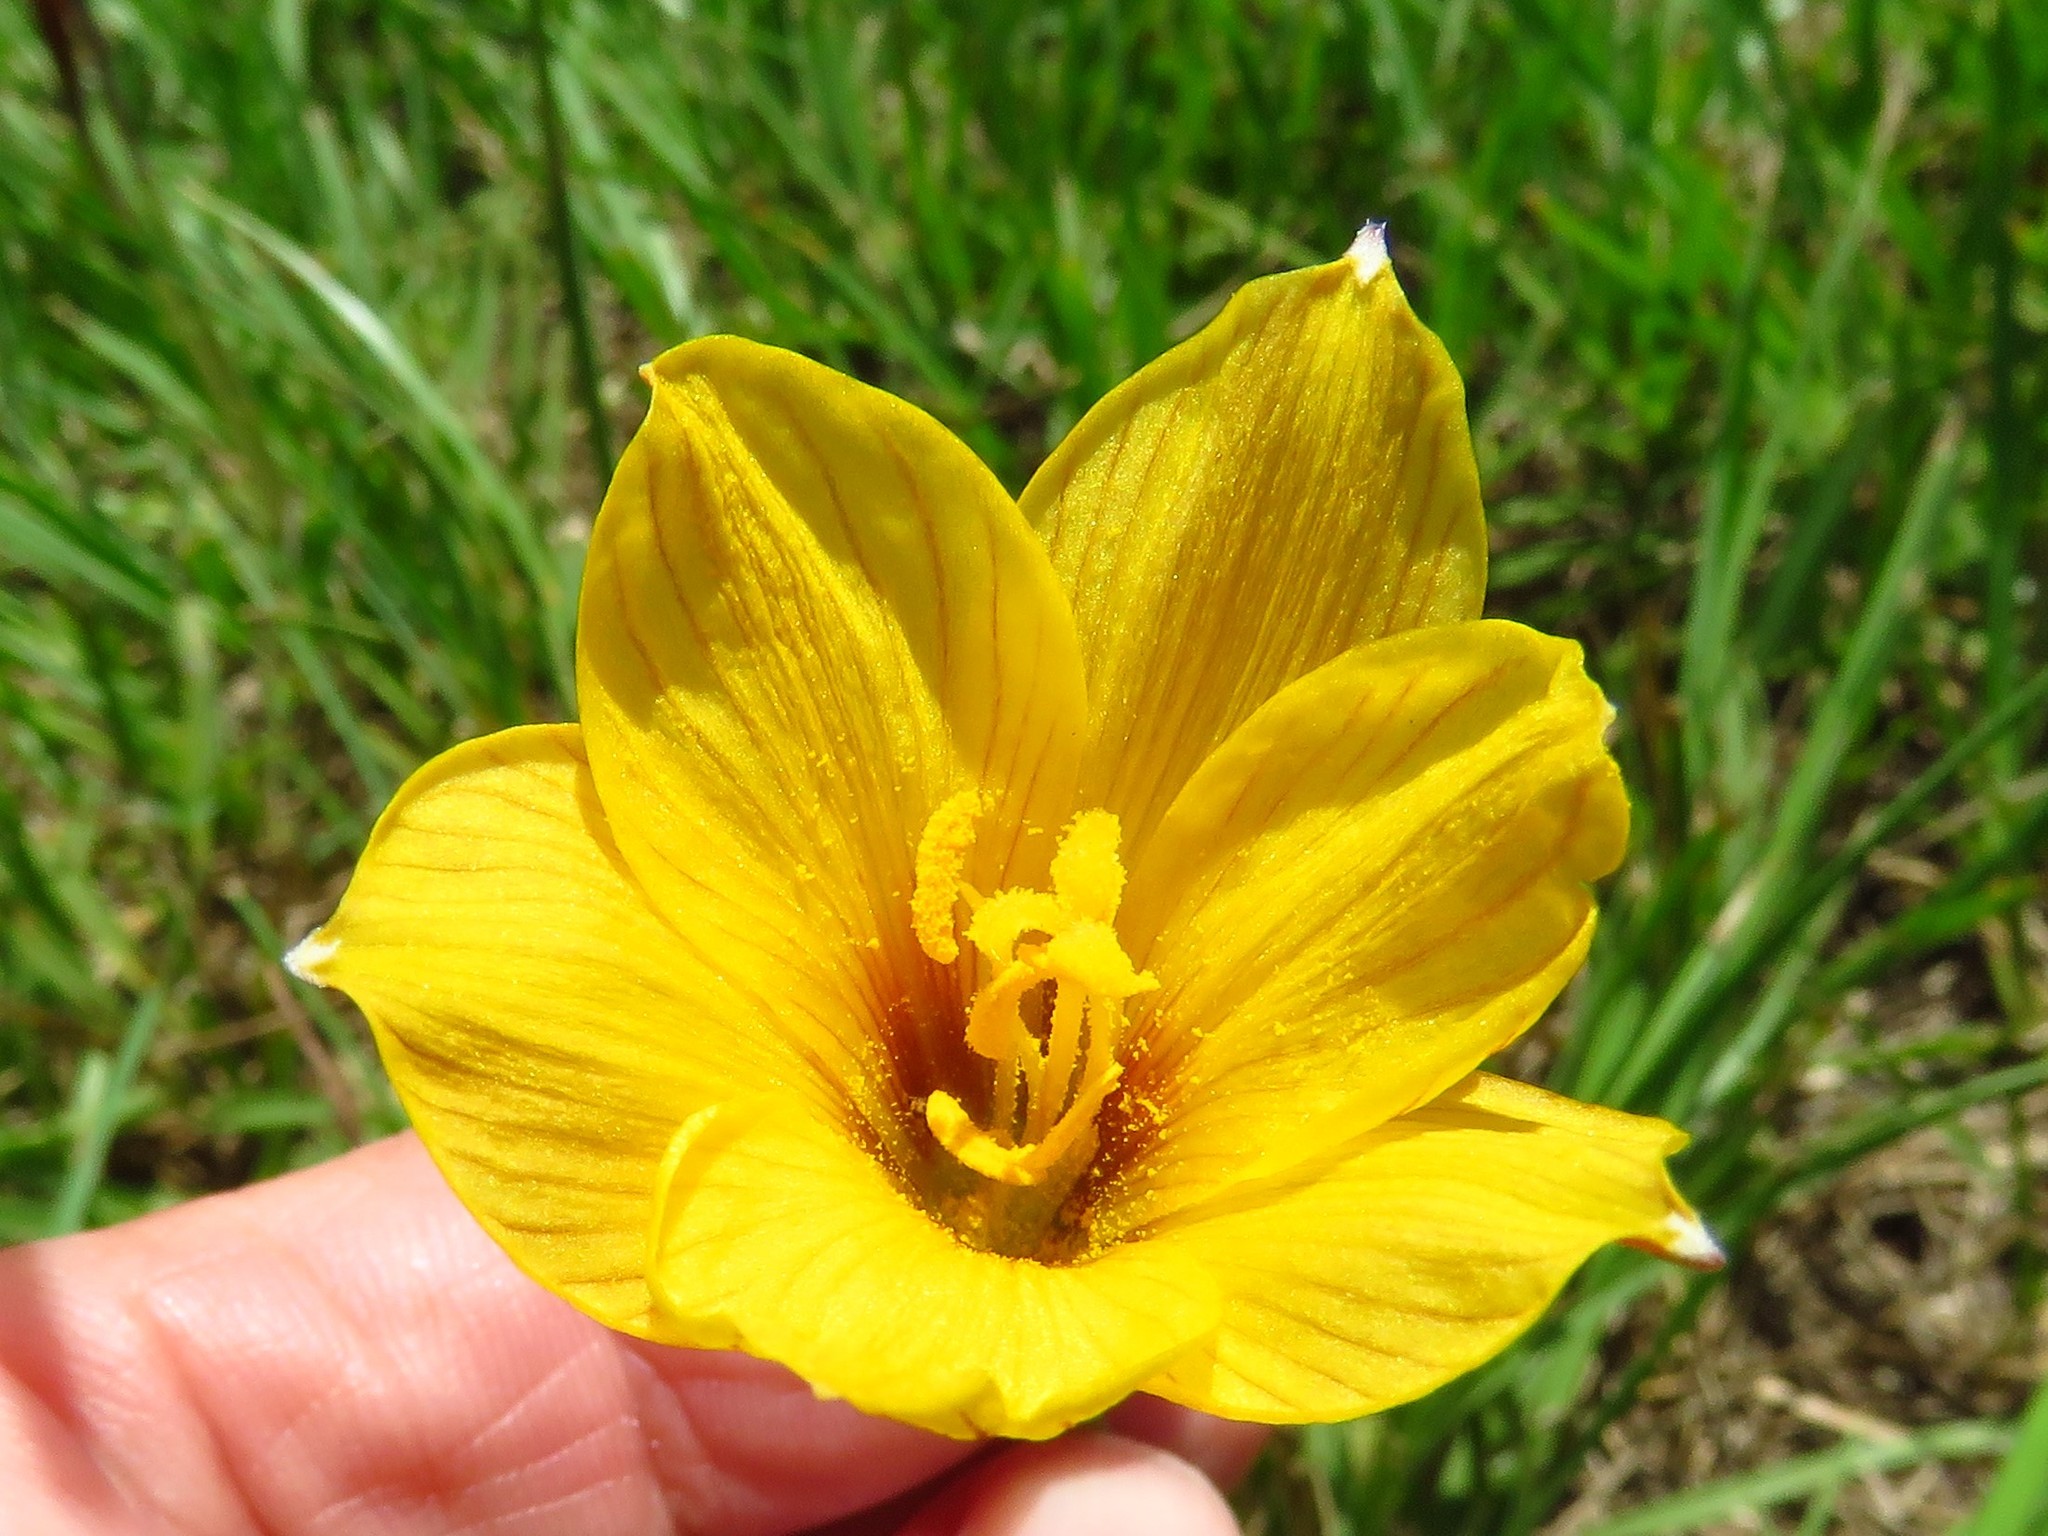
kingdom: Plantae
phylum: Tracheophyta
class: Liliopsida
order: Asparagales
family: Amaryllidaceae
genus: Zephyranthes
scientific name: Zephyranthes tubispatha
